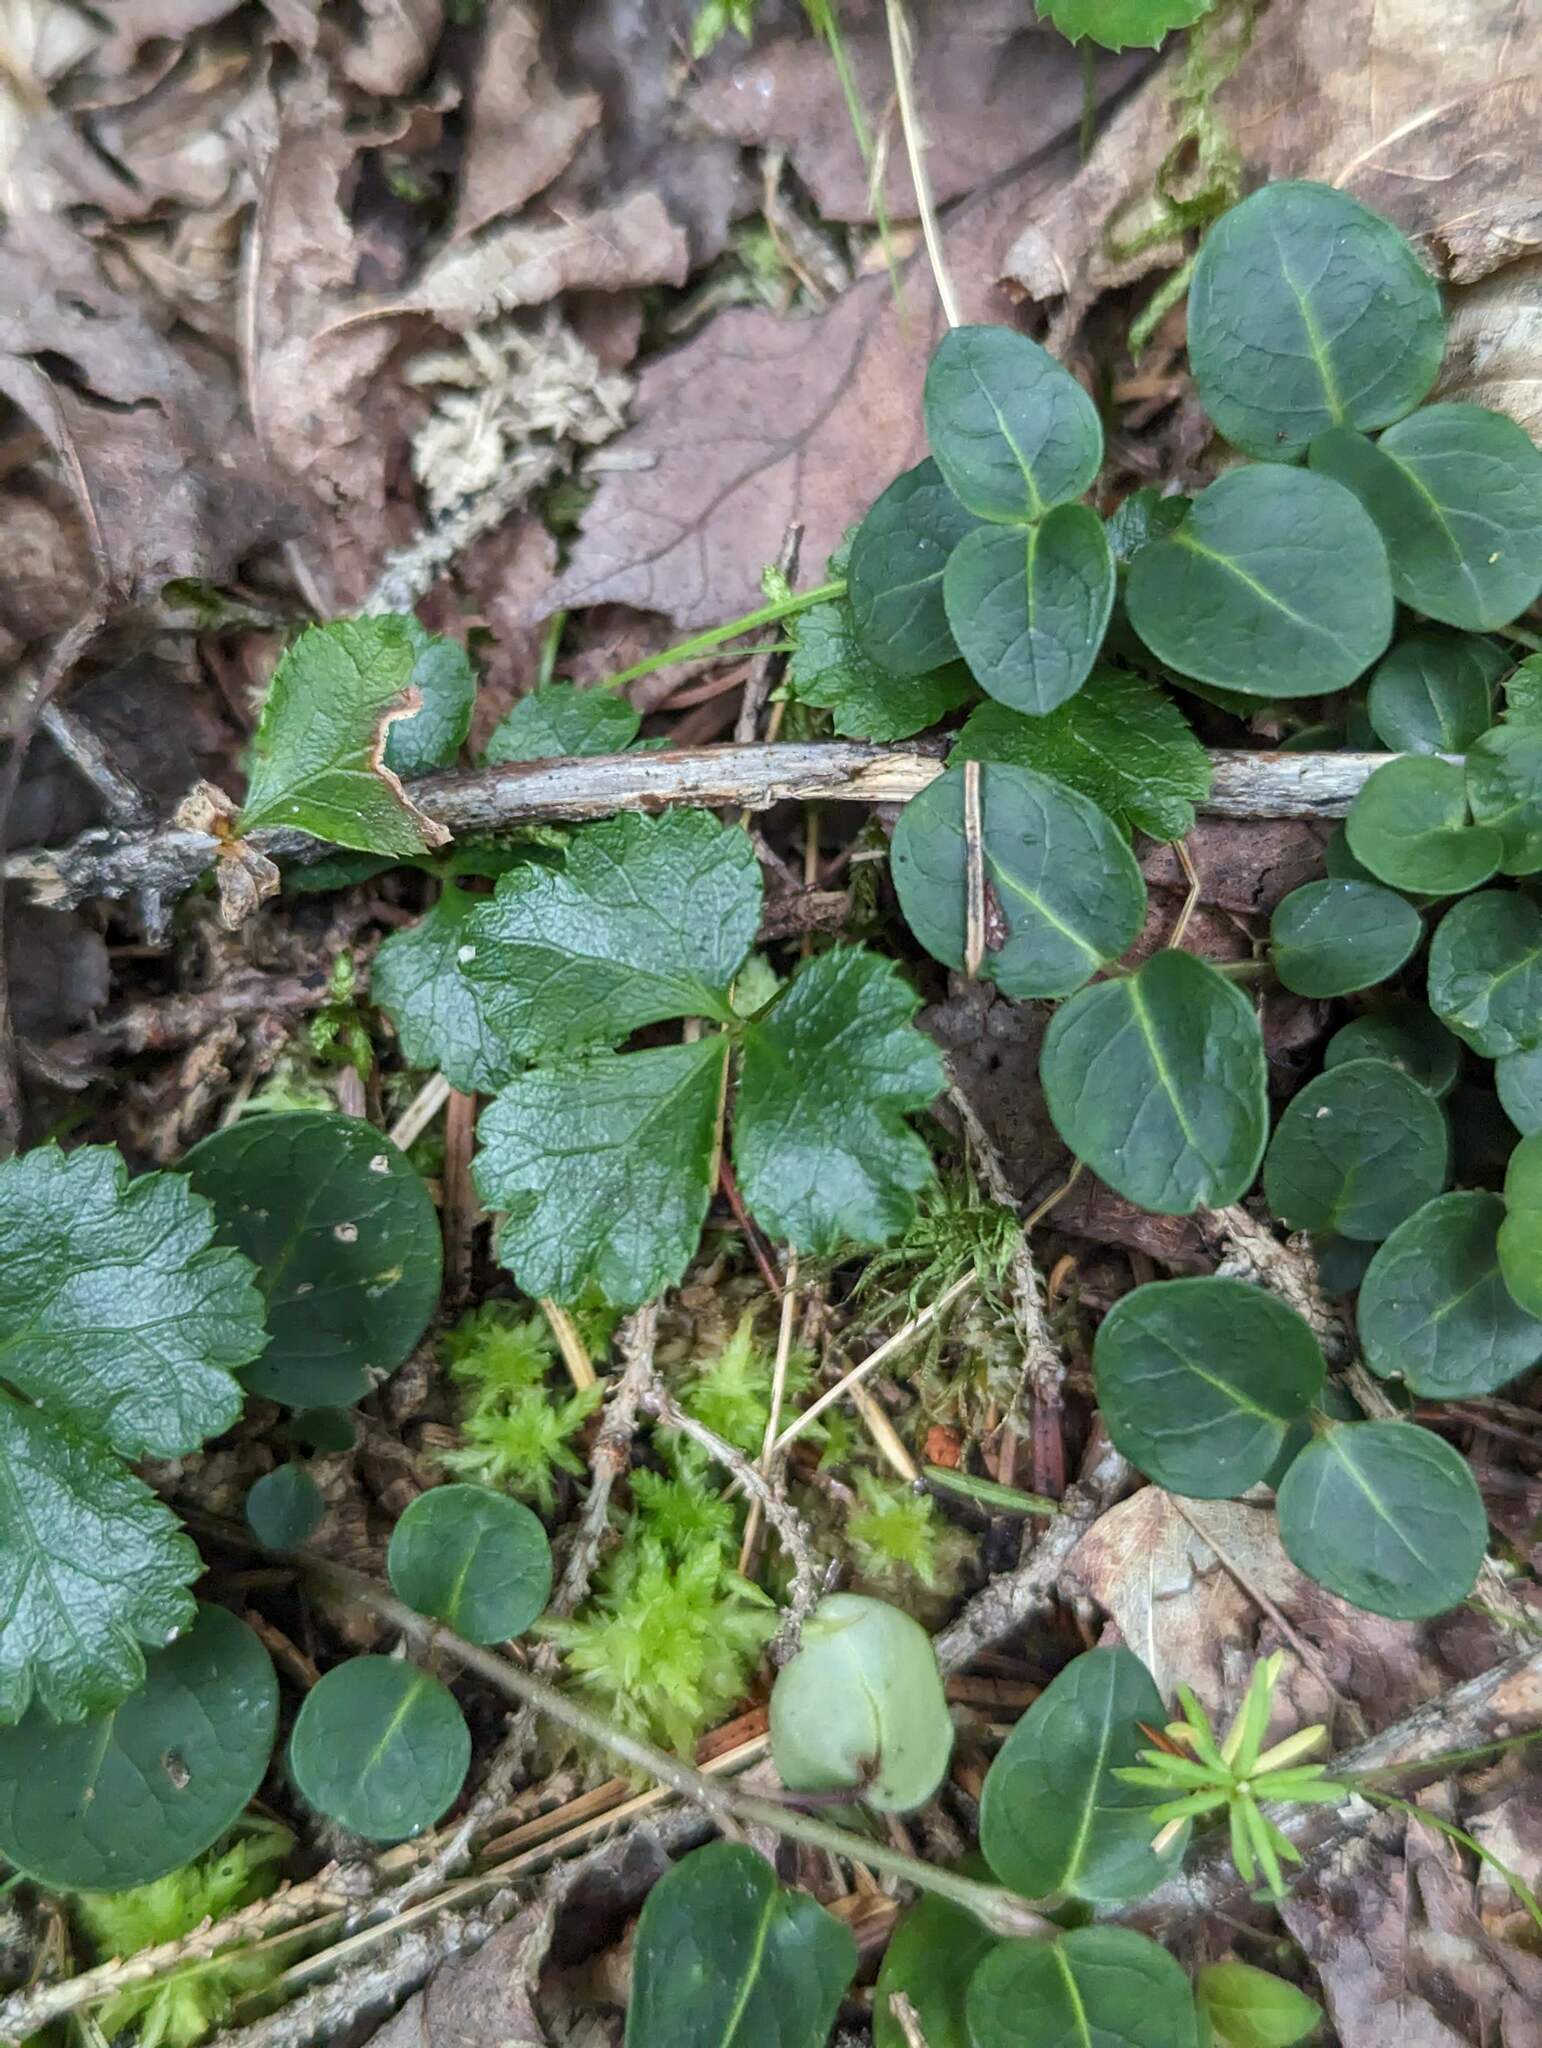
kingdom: Plantae
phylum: Tracheophyta
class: Magnoliopsida
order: Ranunculales
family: Ranunculaceae
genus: Coptis
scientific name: Coptis trifolia
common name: Canker-root
